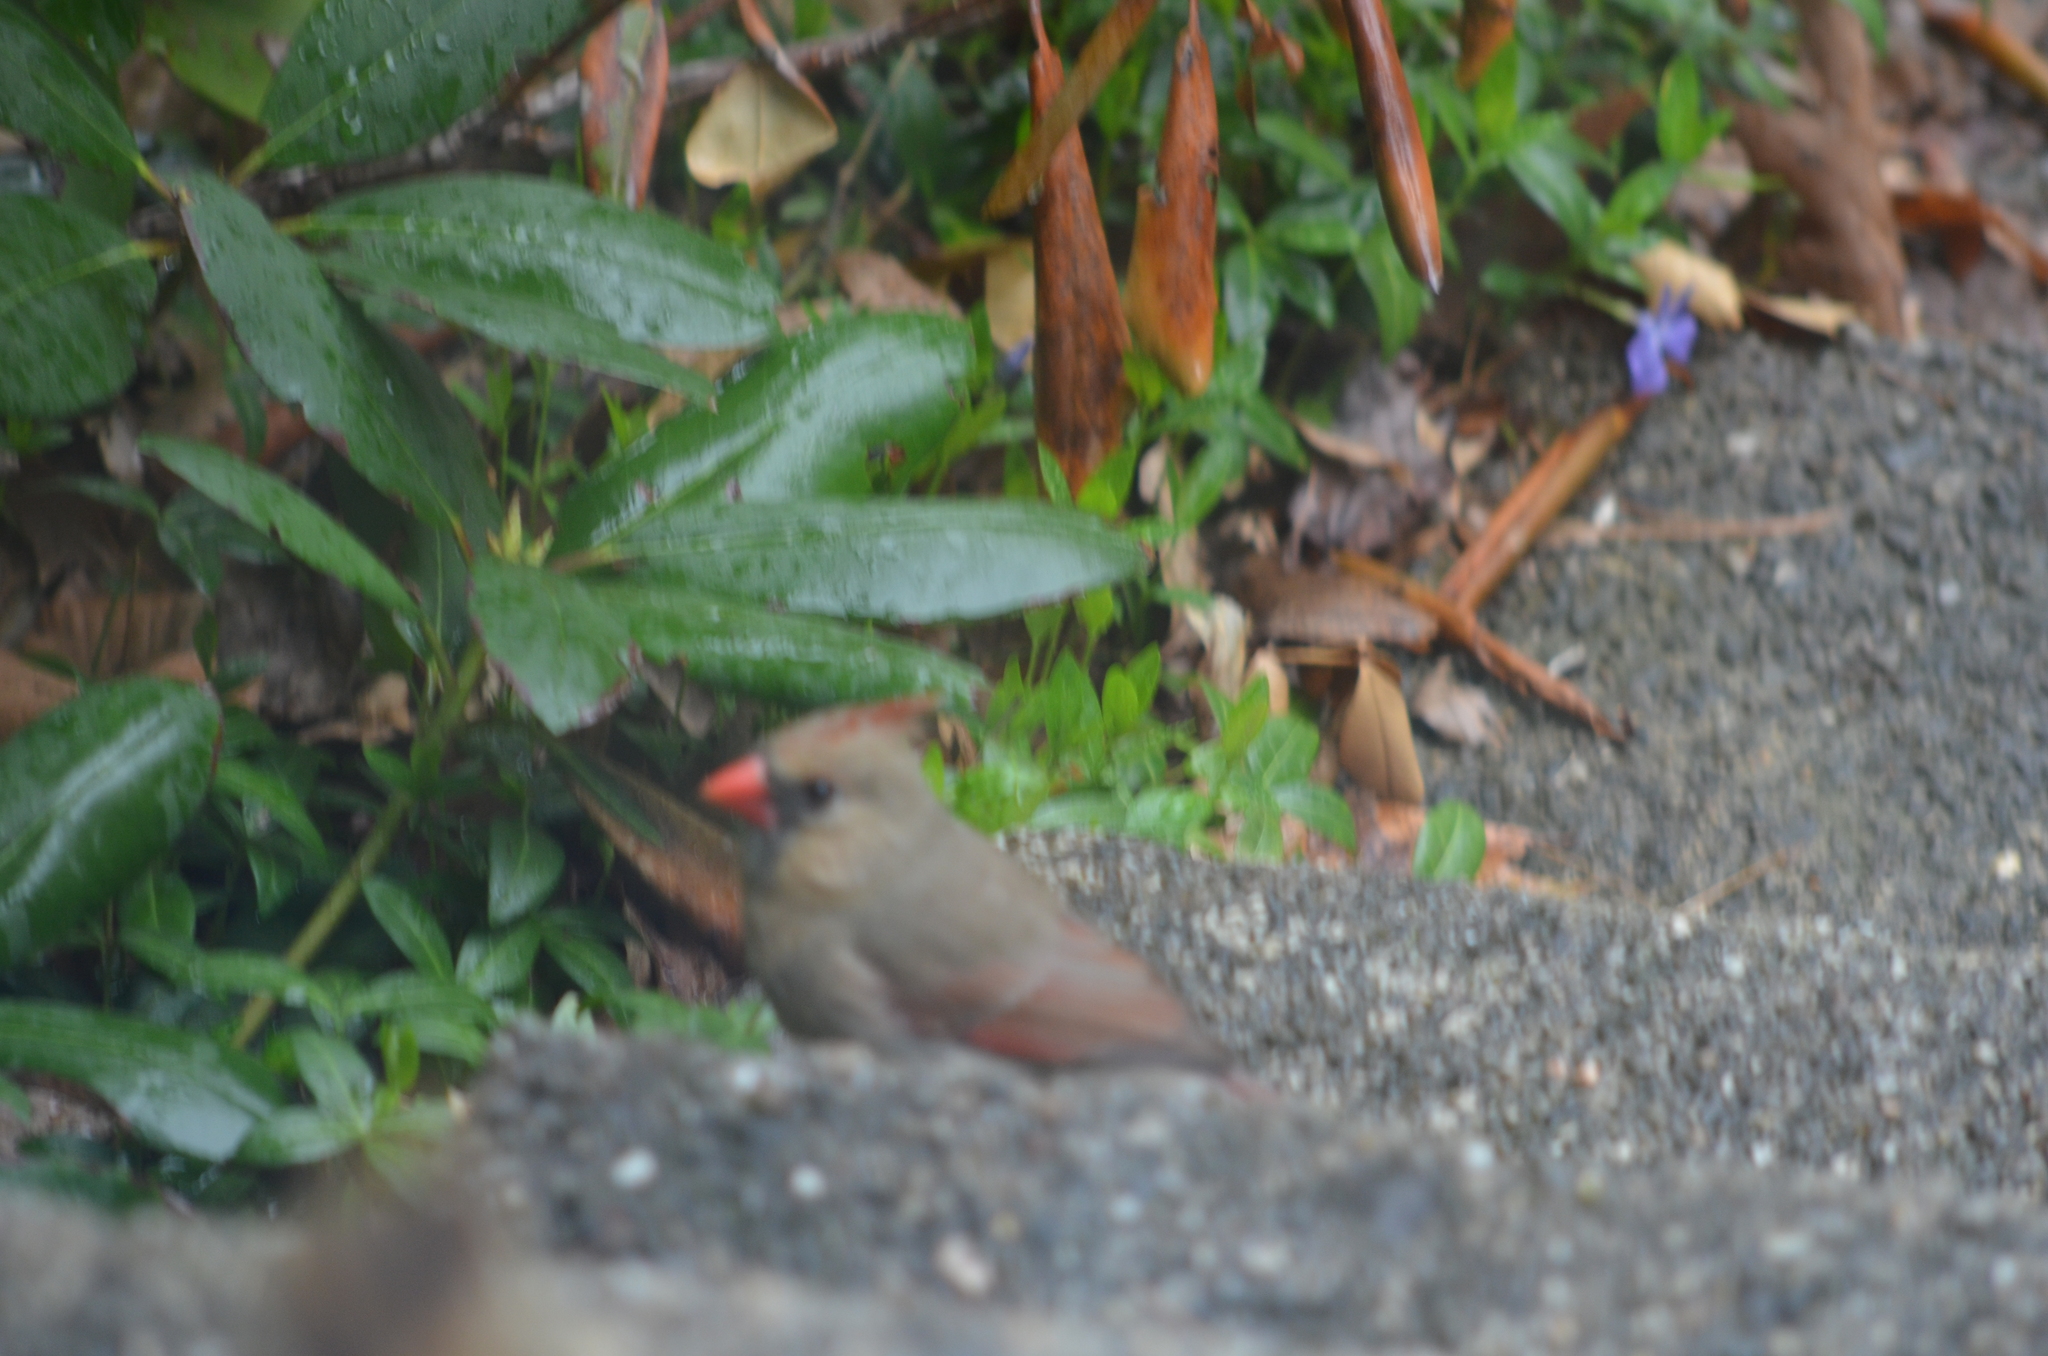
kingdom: Animalia
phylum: Chordata
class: Aves
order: Passeriformes
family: Cardinalidae
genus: Cardinalis
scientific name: Cardinalis cardinalis
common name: Northern cardinal
